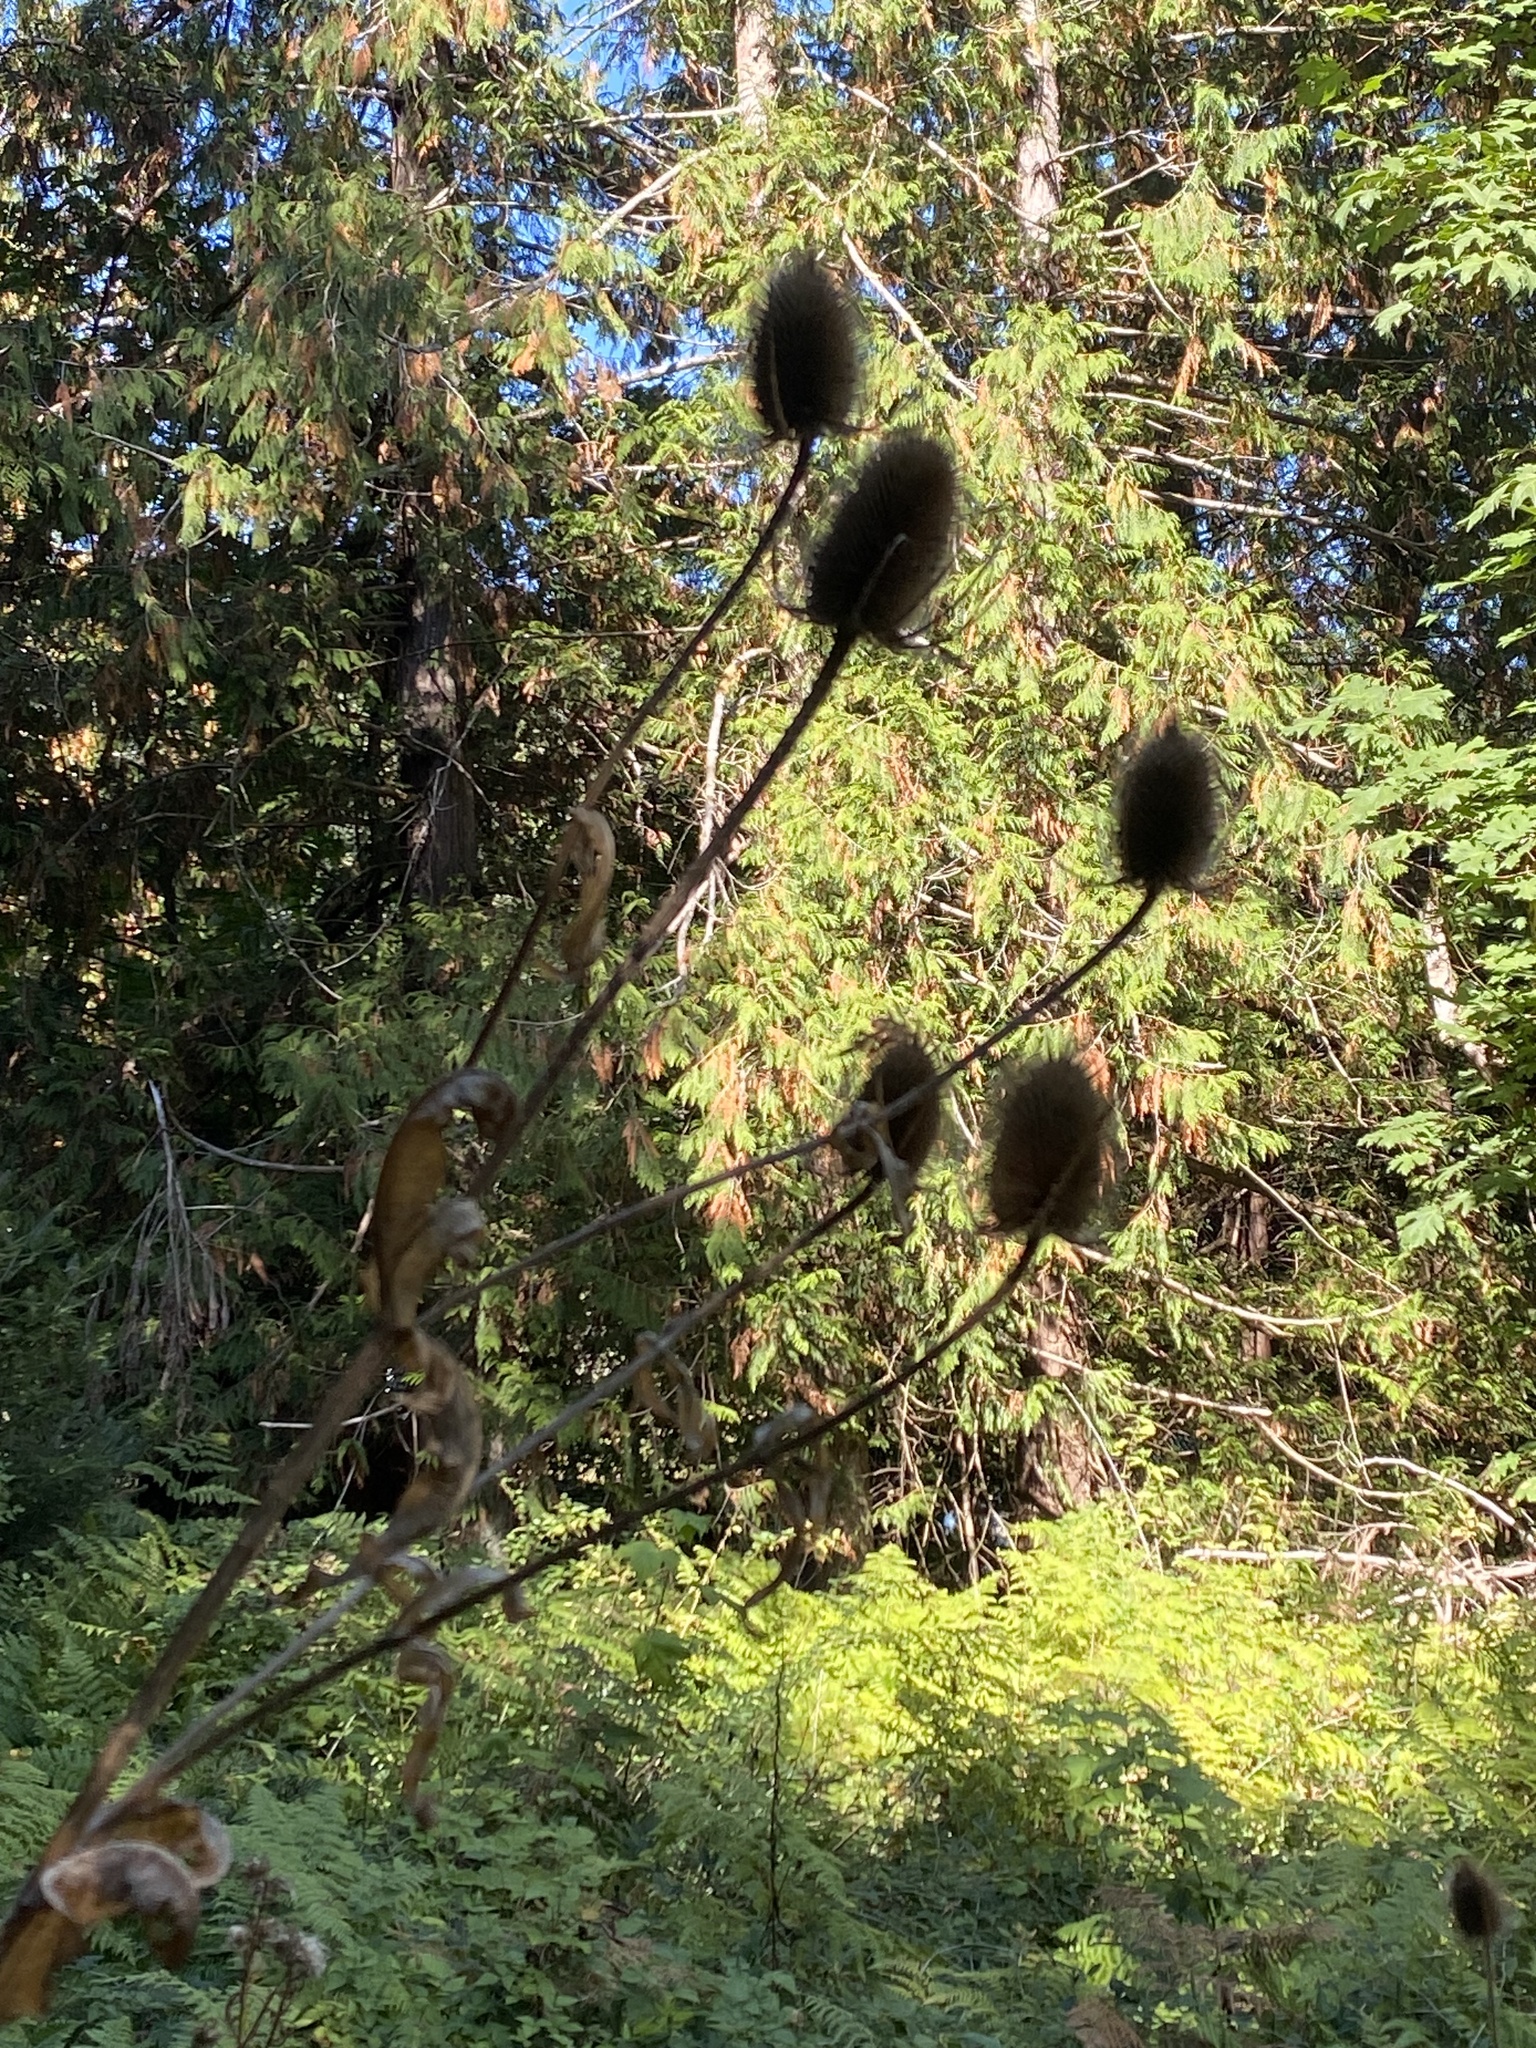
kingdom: Plantae
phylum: Tracheophyta
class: Magnoliopsida
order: Dipsacales
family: Caprifoliaceae
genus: Dipsacus
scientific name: Dipsacus fullonum
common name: Teasel
